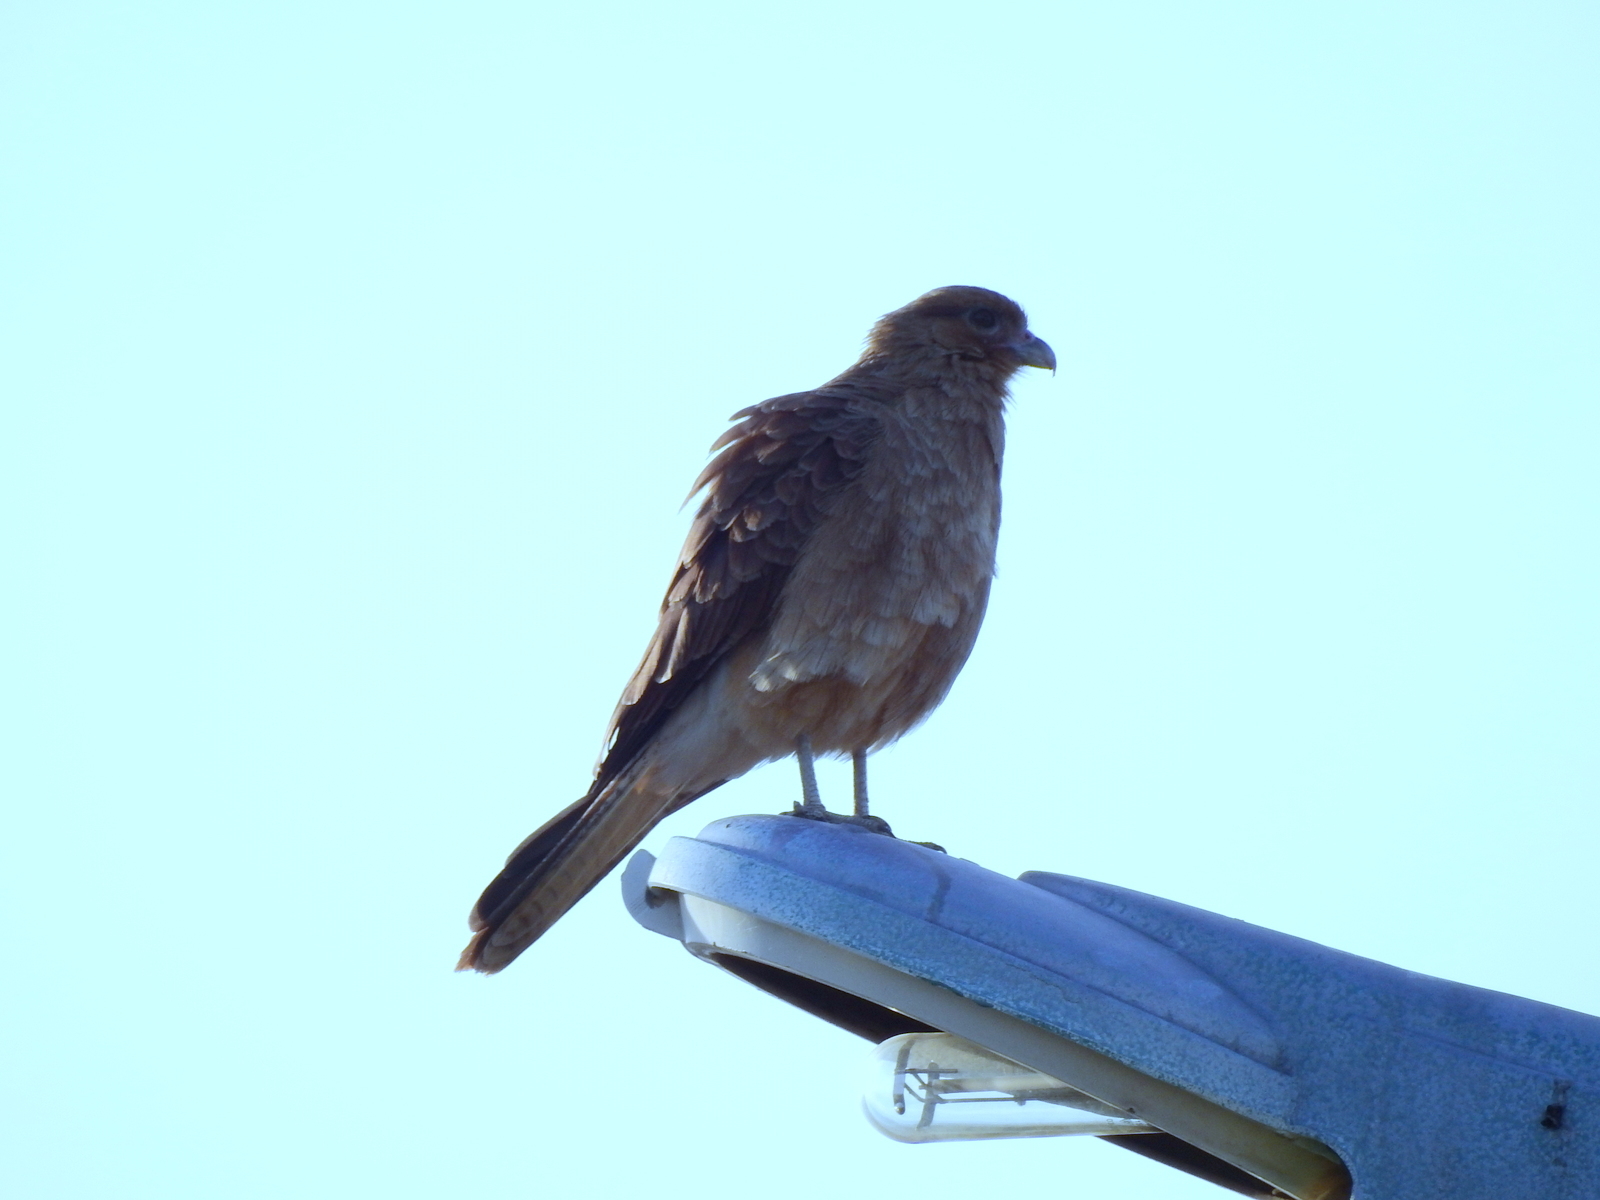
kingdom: Animalia
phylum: Chordata
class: Aves
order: Falconiformes
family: Falconidae
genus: Daptrius
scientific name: Daptrius
